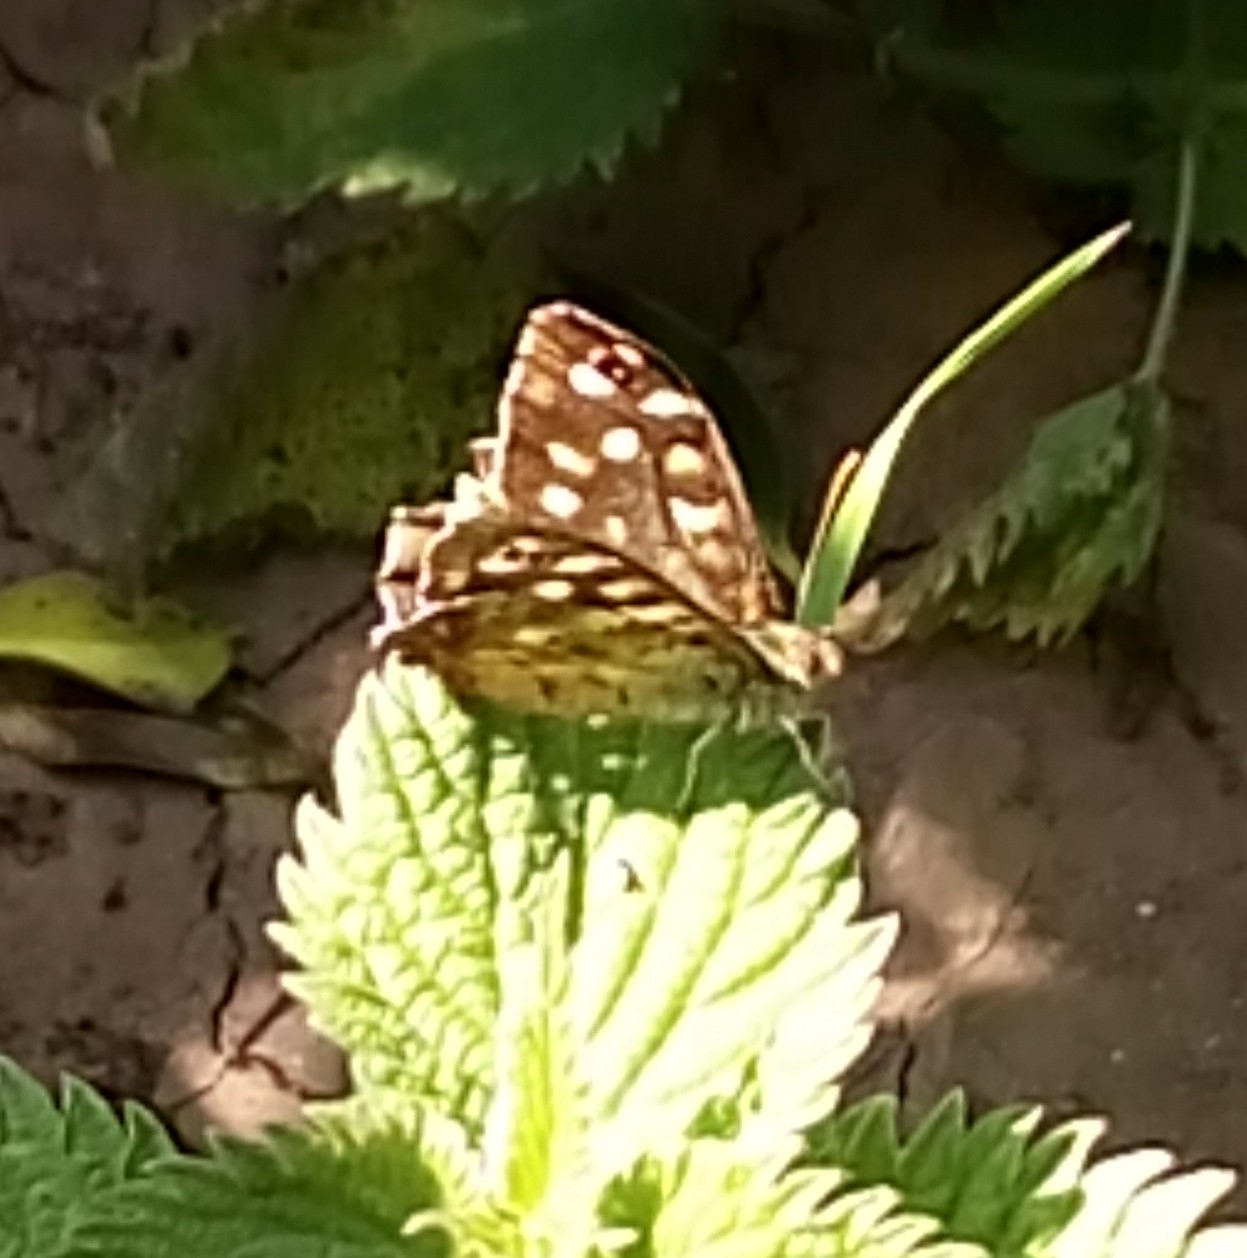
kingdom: Animalia
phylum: Arthropoda
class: Insecta
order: Lepidoptera
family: Nymphalidae
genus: Pararge
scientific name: Pararge aegeria
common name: Speckled wood
